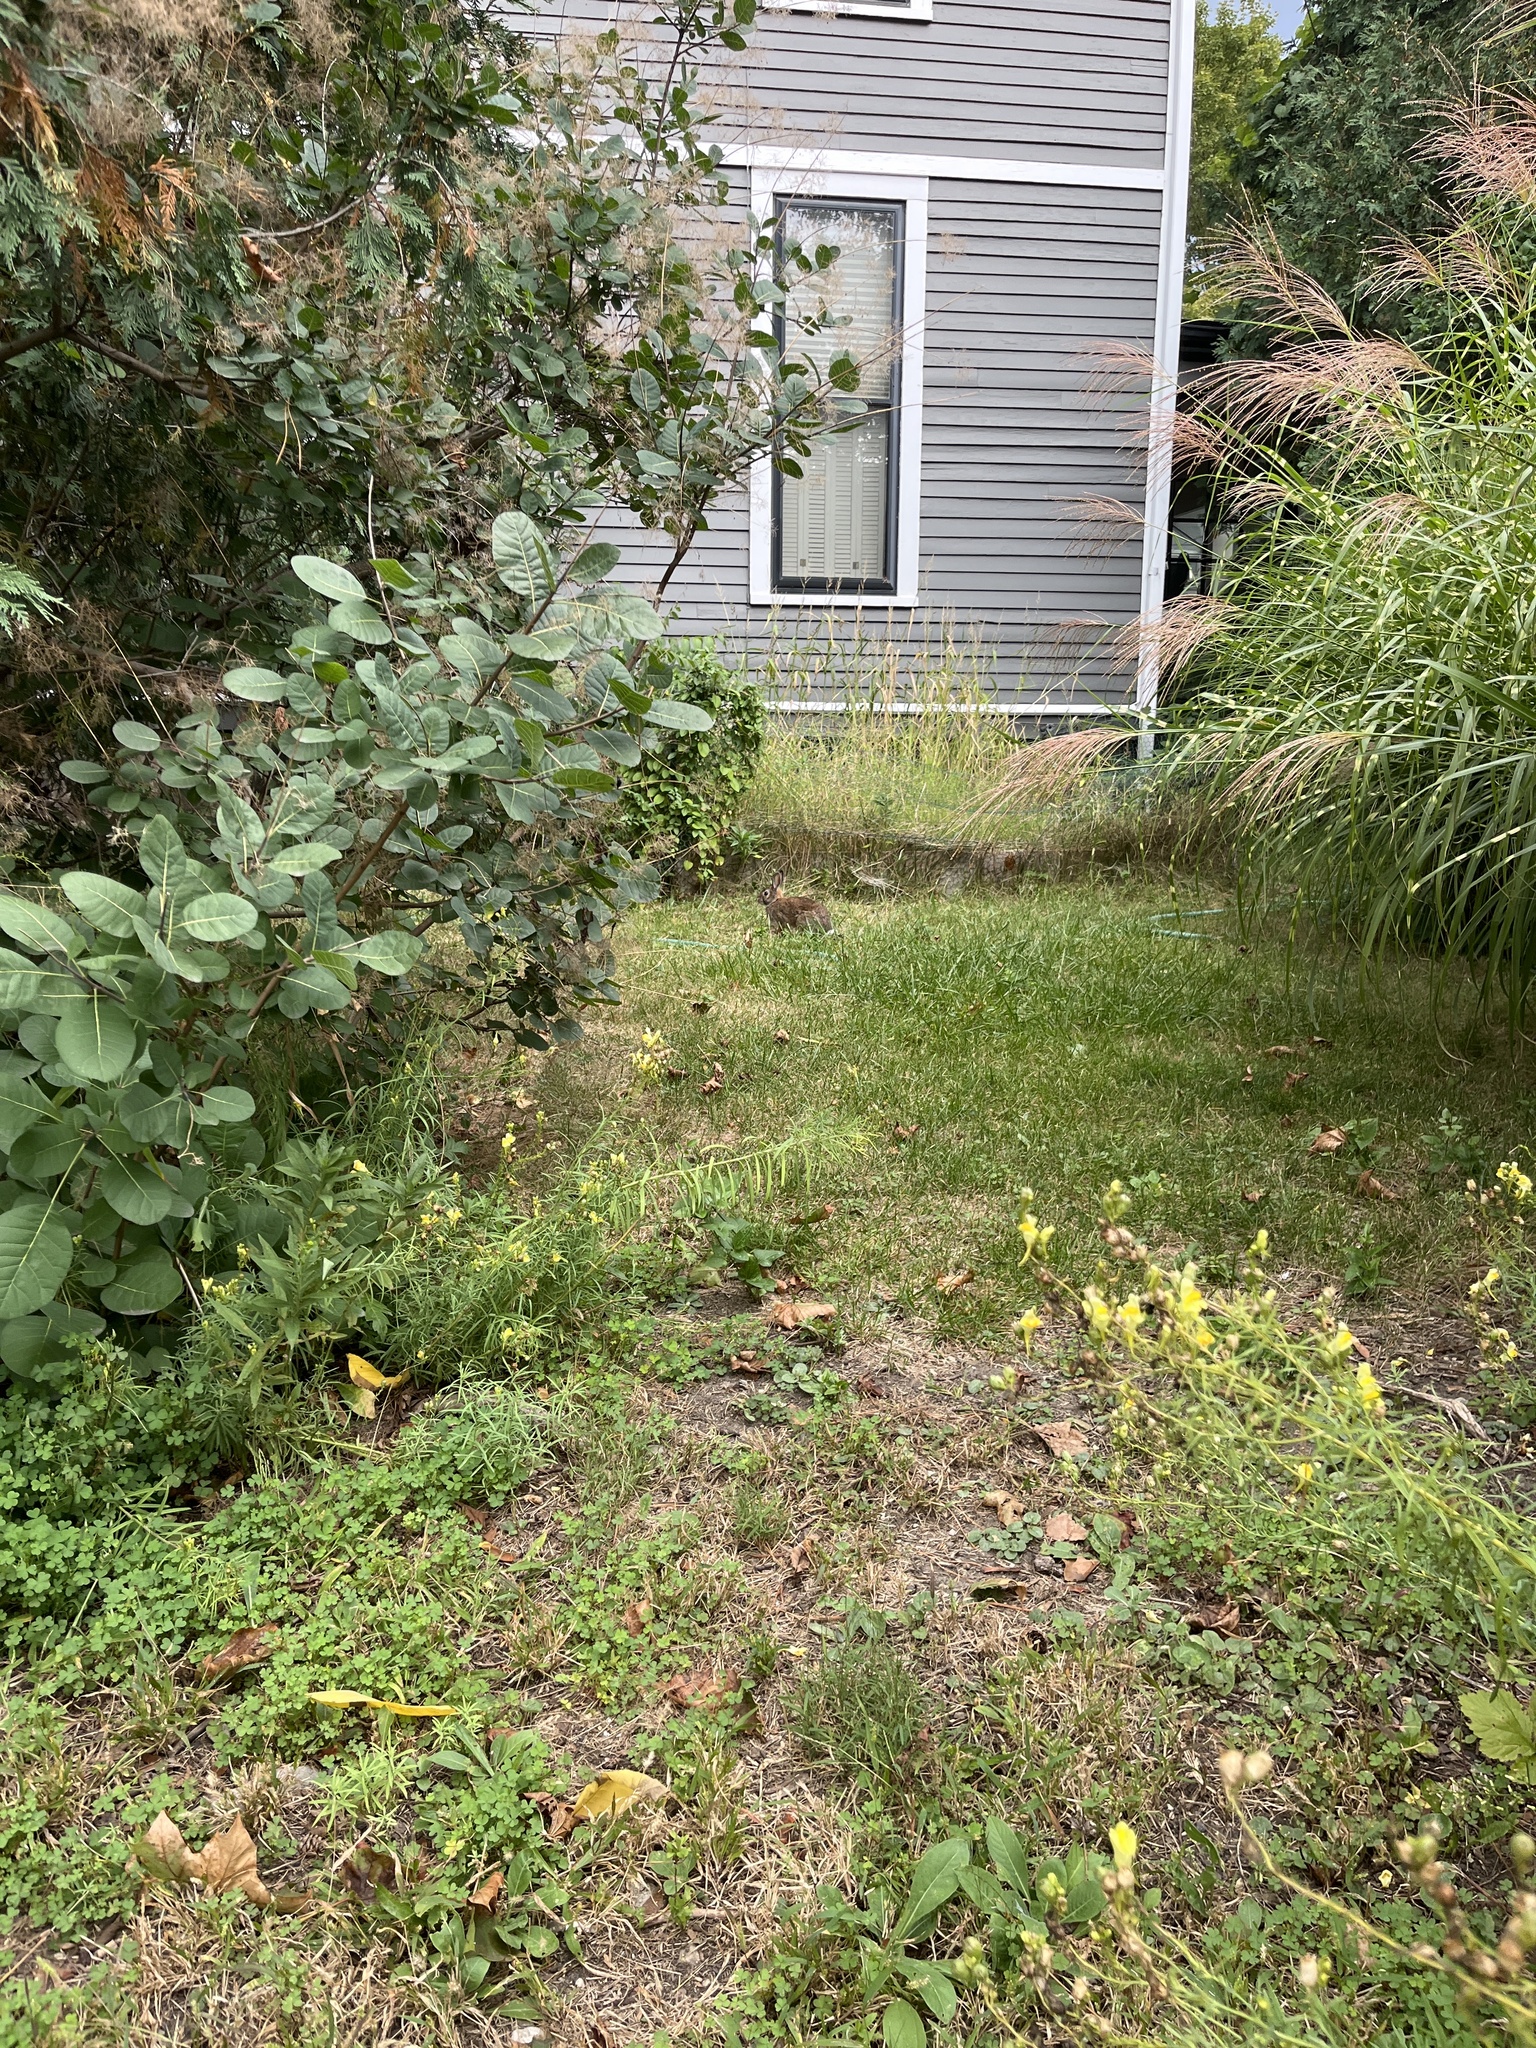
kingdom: Animalia
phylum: Chordata
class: Mammalia
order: Lagomorpha
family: Leporidae
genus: Sylvilagus
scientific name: Sylvilagus floridanus
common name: Eastern cottontail
